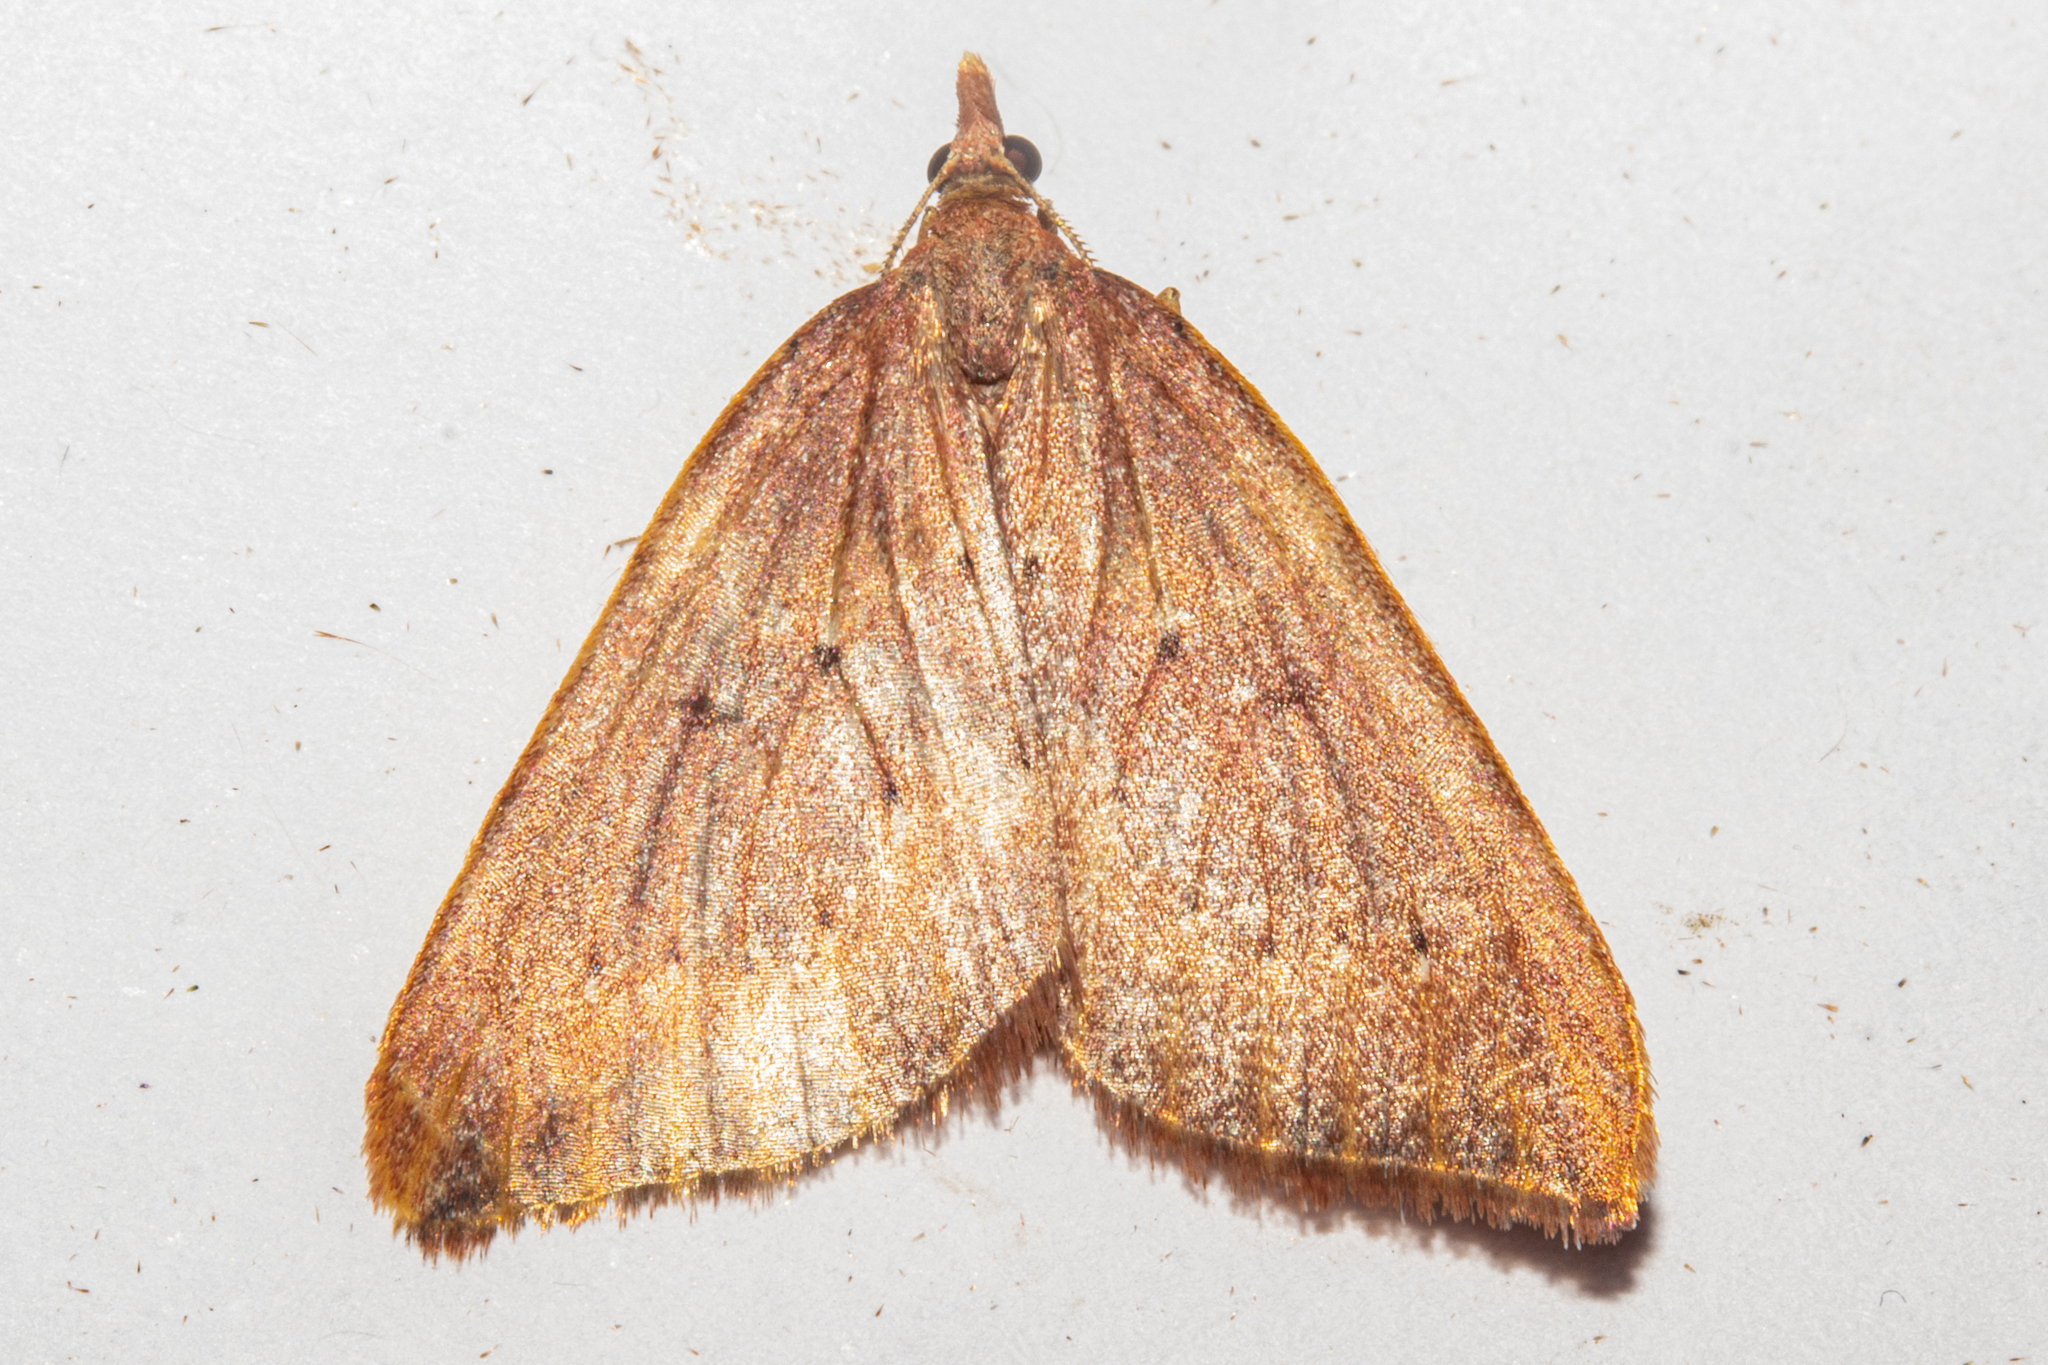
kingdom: Animalia
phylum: Arthropoda
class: Insecta
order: Lepidoptera
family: Geometridae
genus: Xanthorhoe
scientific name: Xanthorhoe occulta
